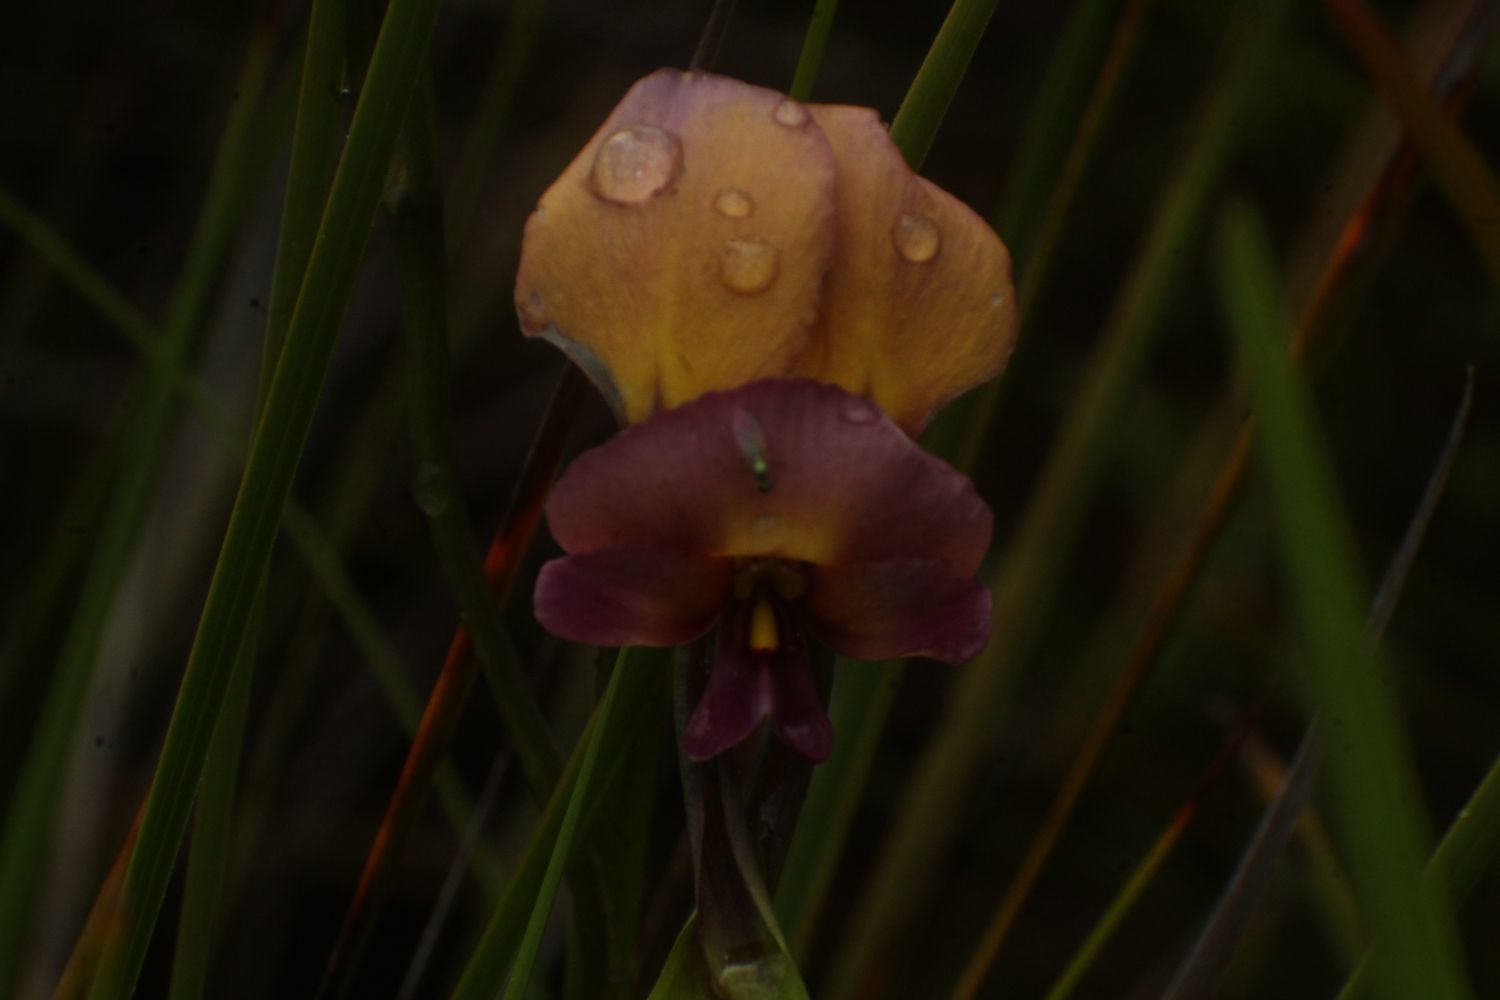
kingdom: Plantae
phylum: Tracheophyta
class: Liliopsida
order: Asparagales
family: Orchidaceae
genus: Diuris
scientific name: Diuris longifolia
